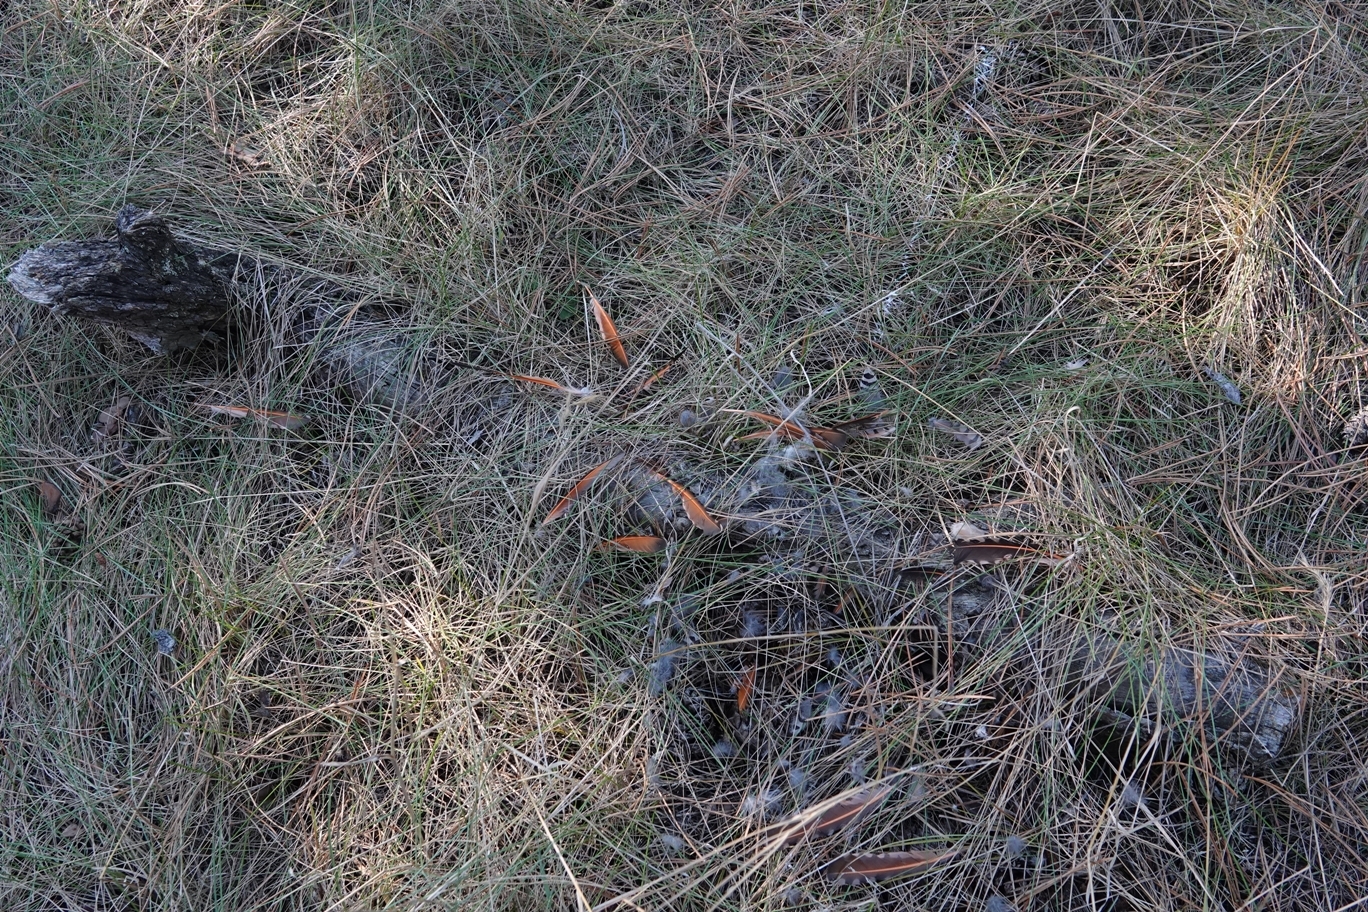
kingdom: Animalia
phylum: Chordata
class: Aves
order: Piciformes
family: Picidae
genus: Colaptes
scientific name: Colaptes auratus
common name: Northern flicker
